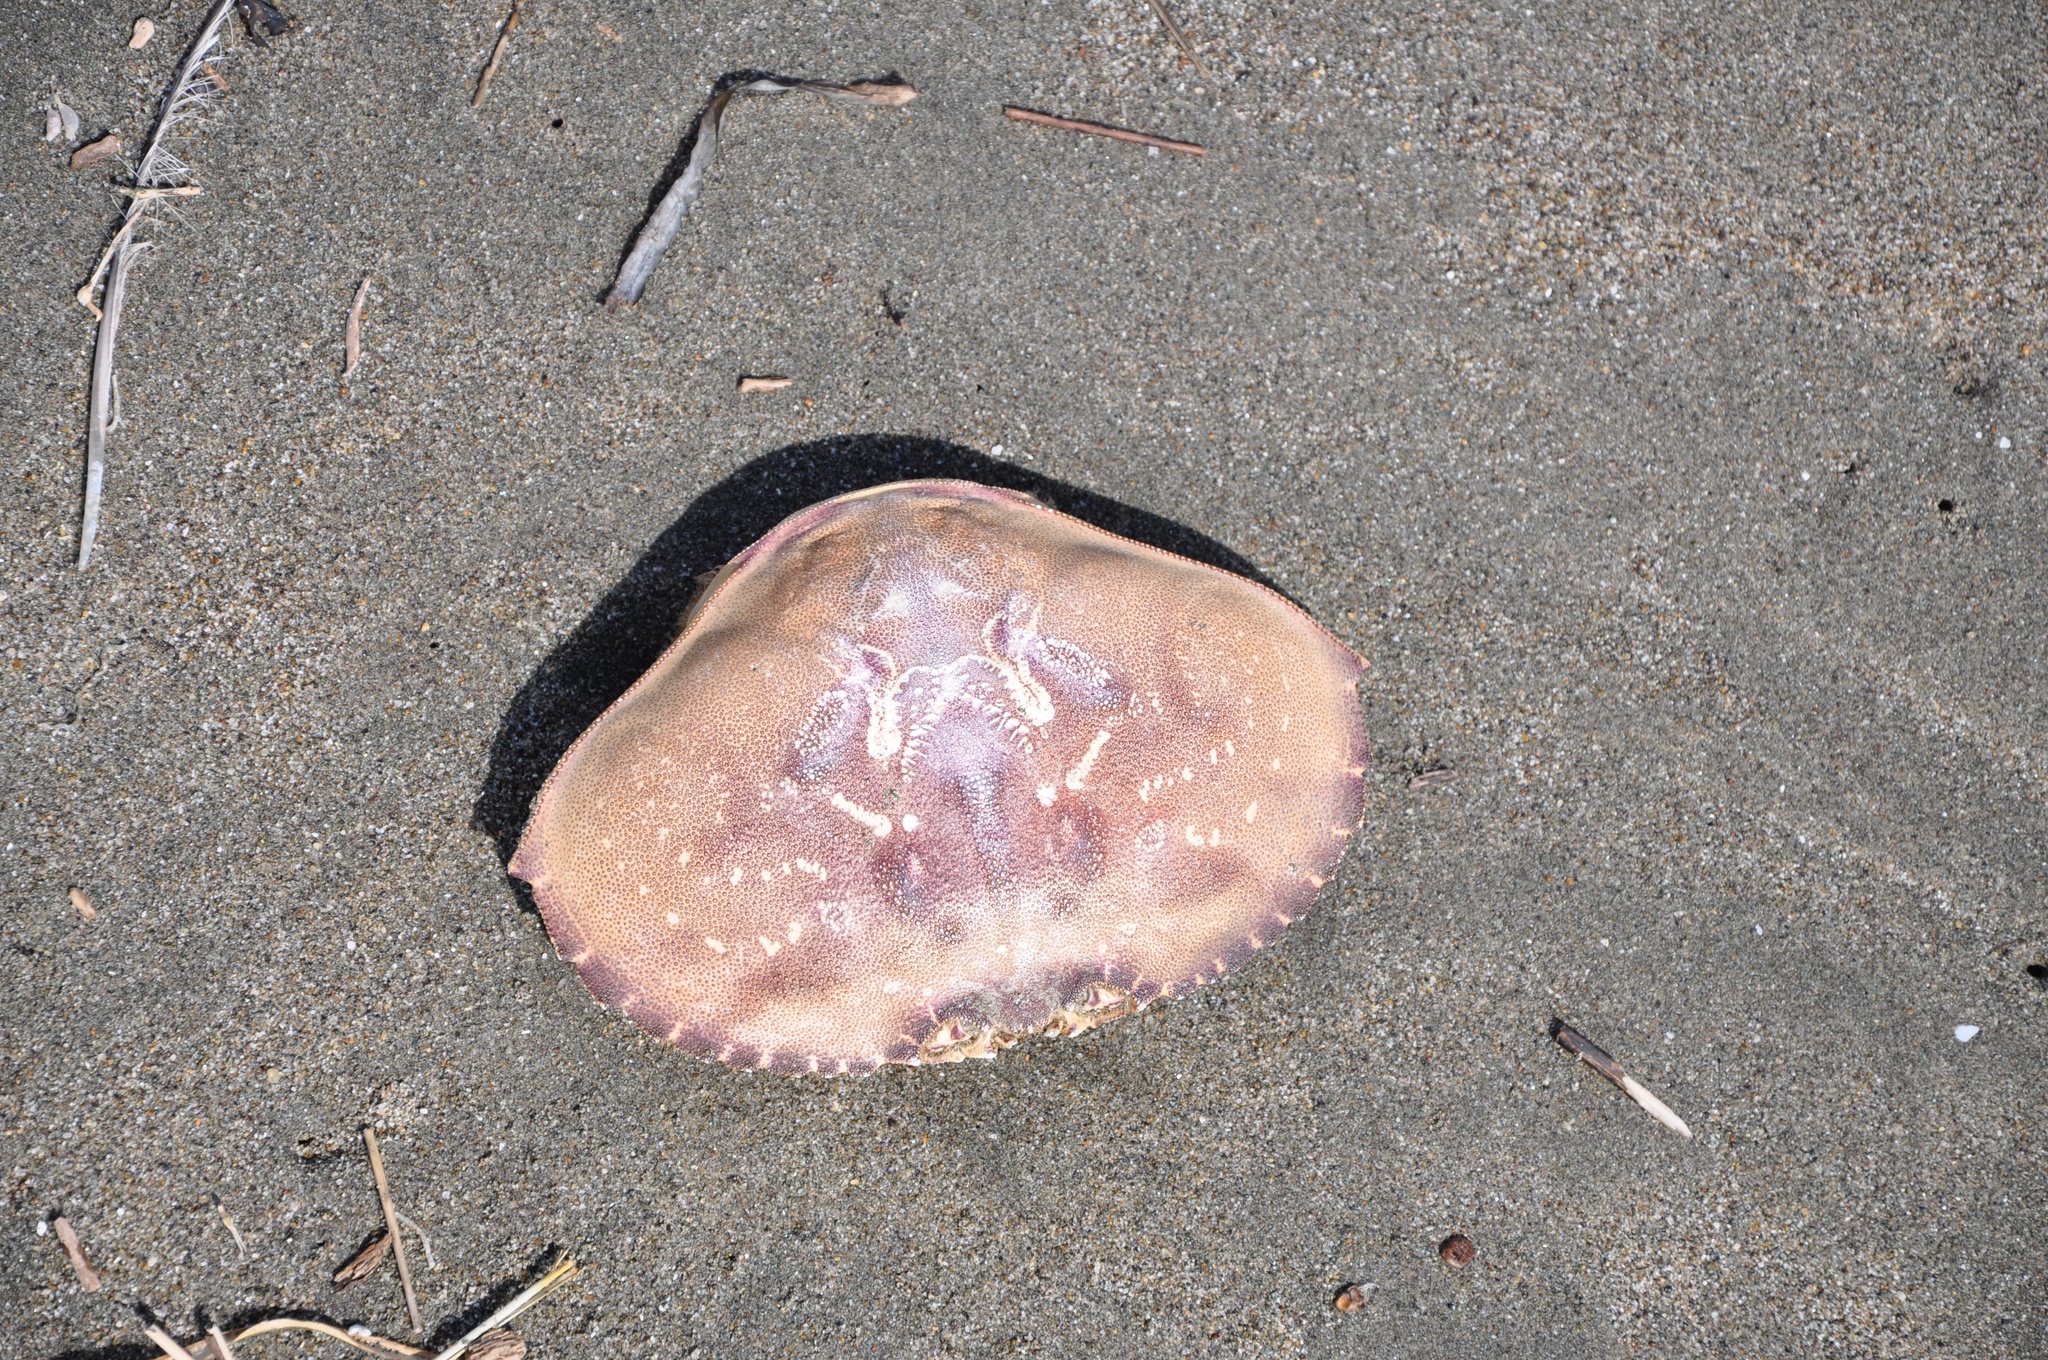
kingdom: Animalia
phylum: Arthropoda
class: Malacostraca
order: Decapoda
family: Cancridae
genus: Metacarcinus
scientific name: Metacarcinus magister
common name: Californian crab
